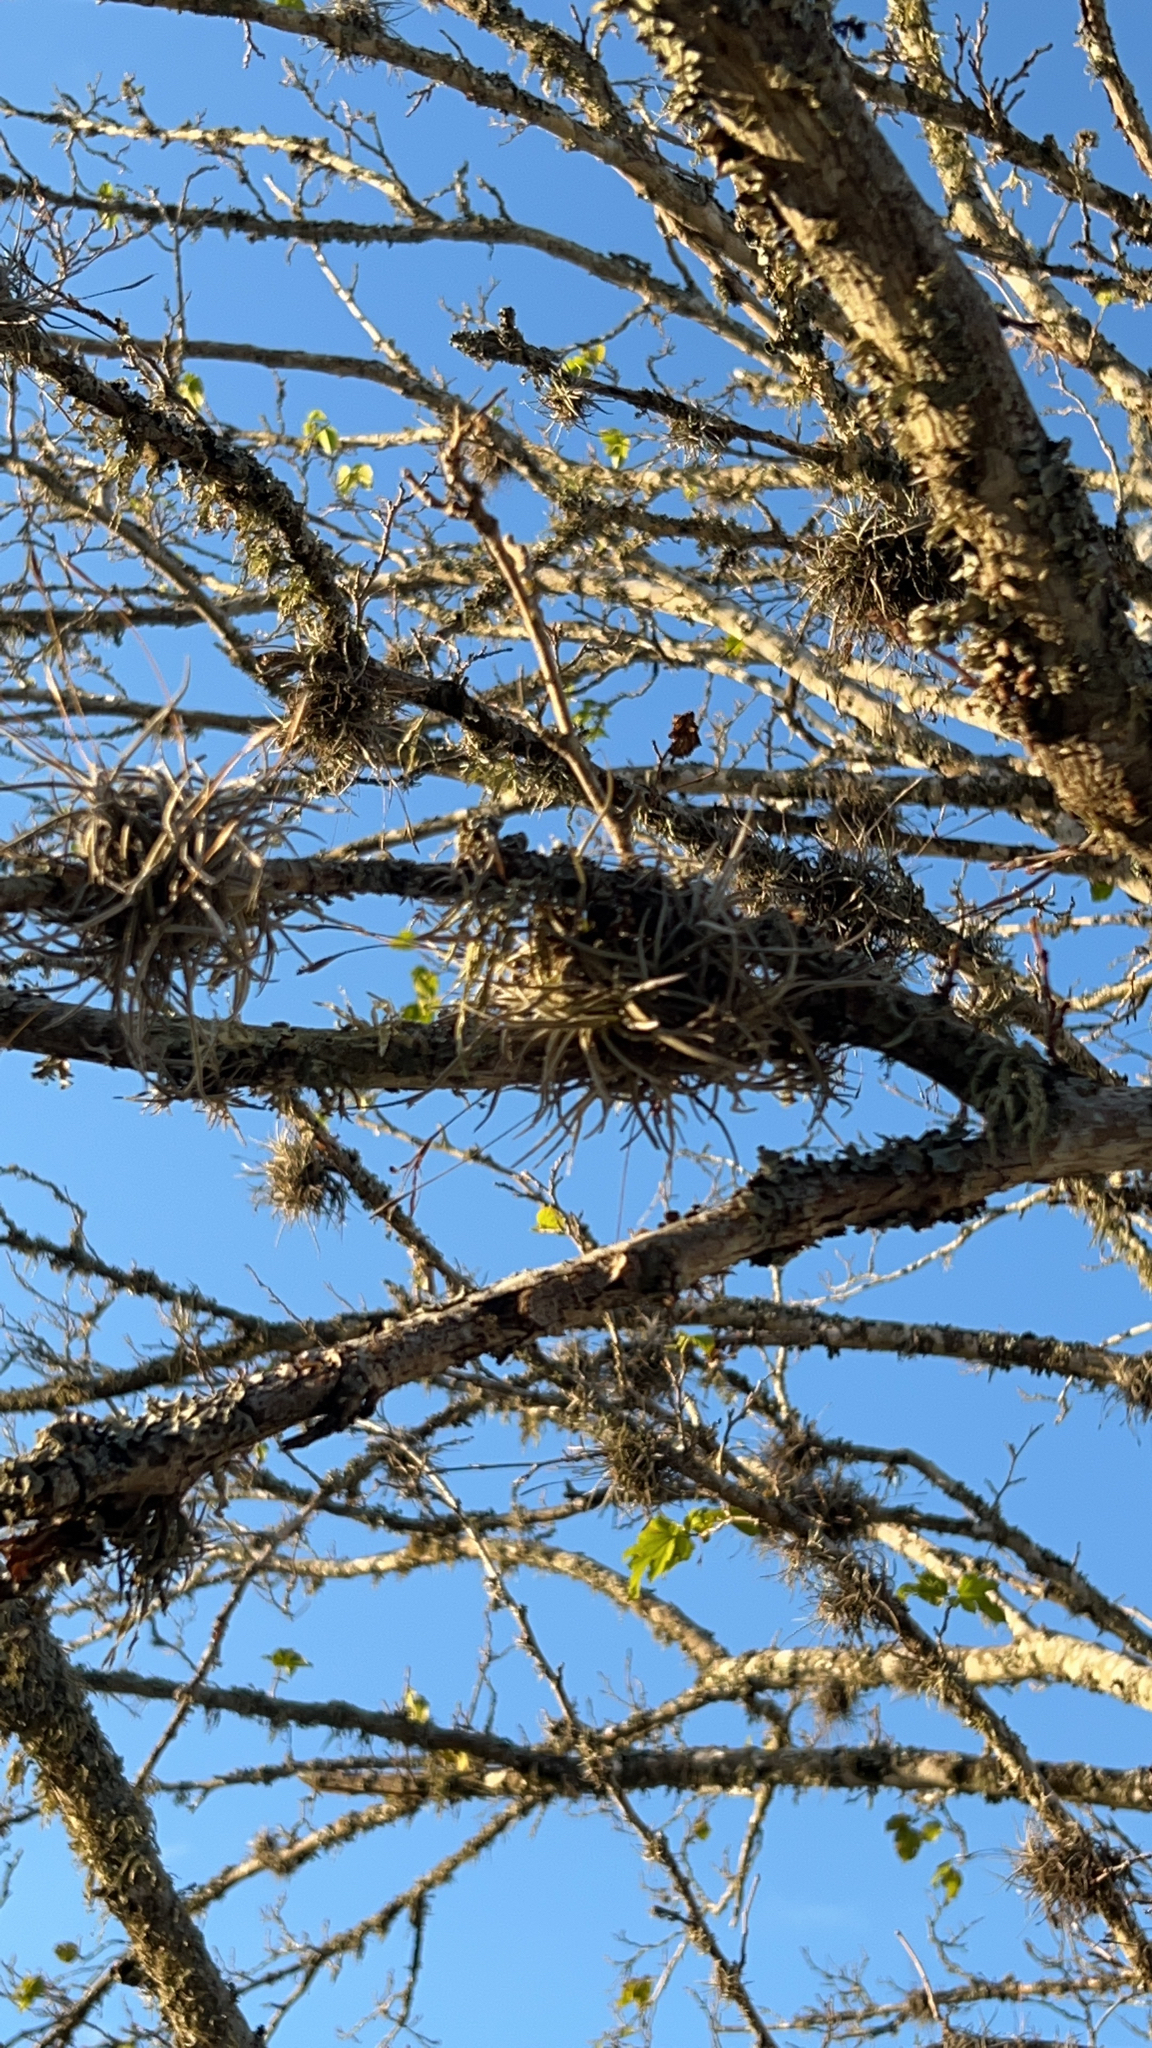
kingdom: Plantae
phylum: Tracheophyta
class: Liliopsida
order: Poales
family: Bromeliaceae
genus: Tillandsia
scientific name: Tillandsia recurvata
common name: Small ballmoss
